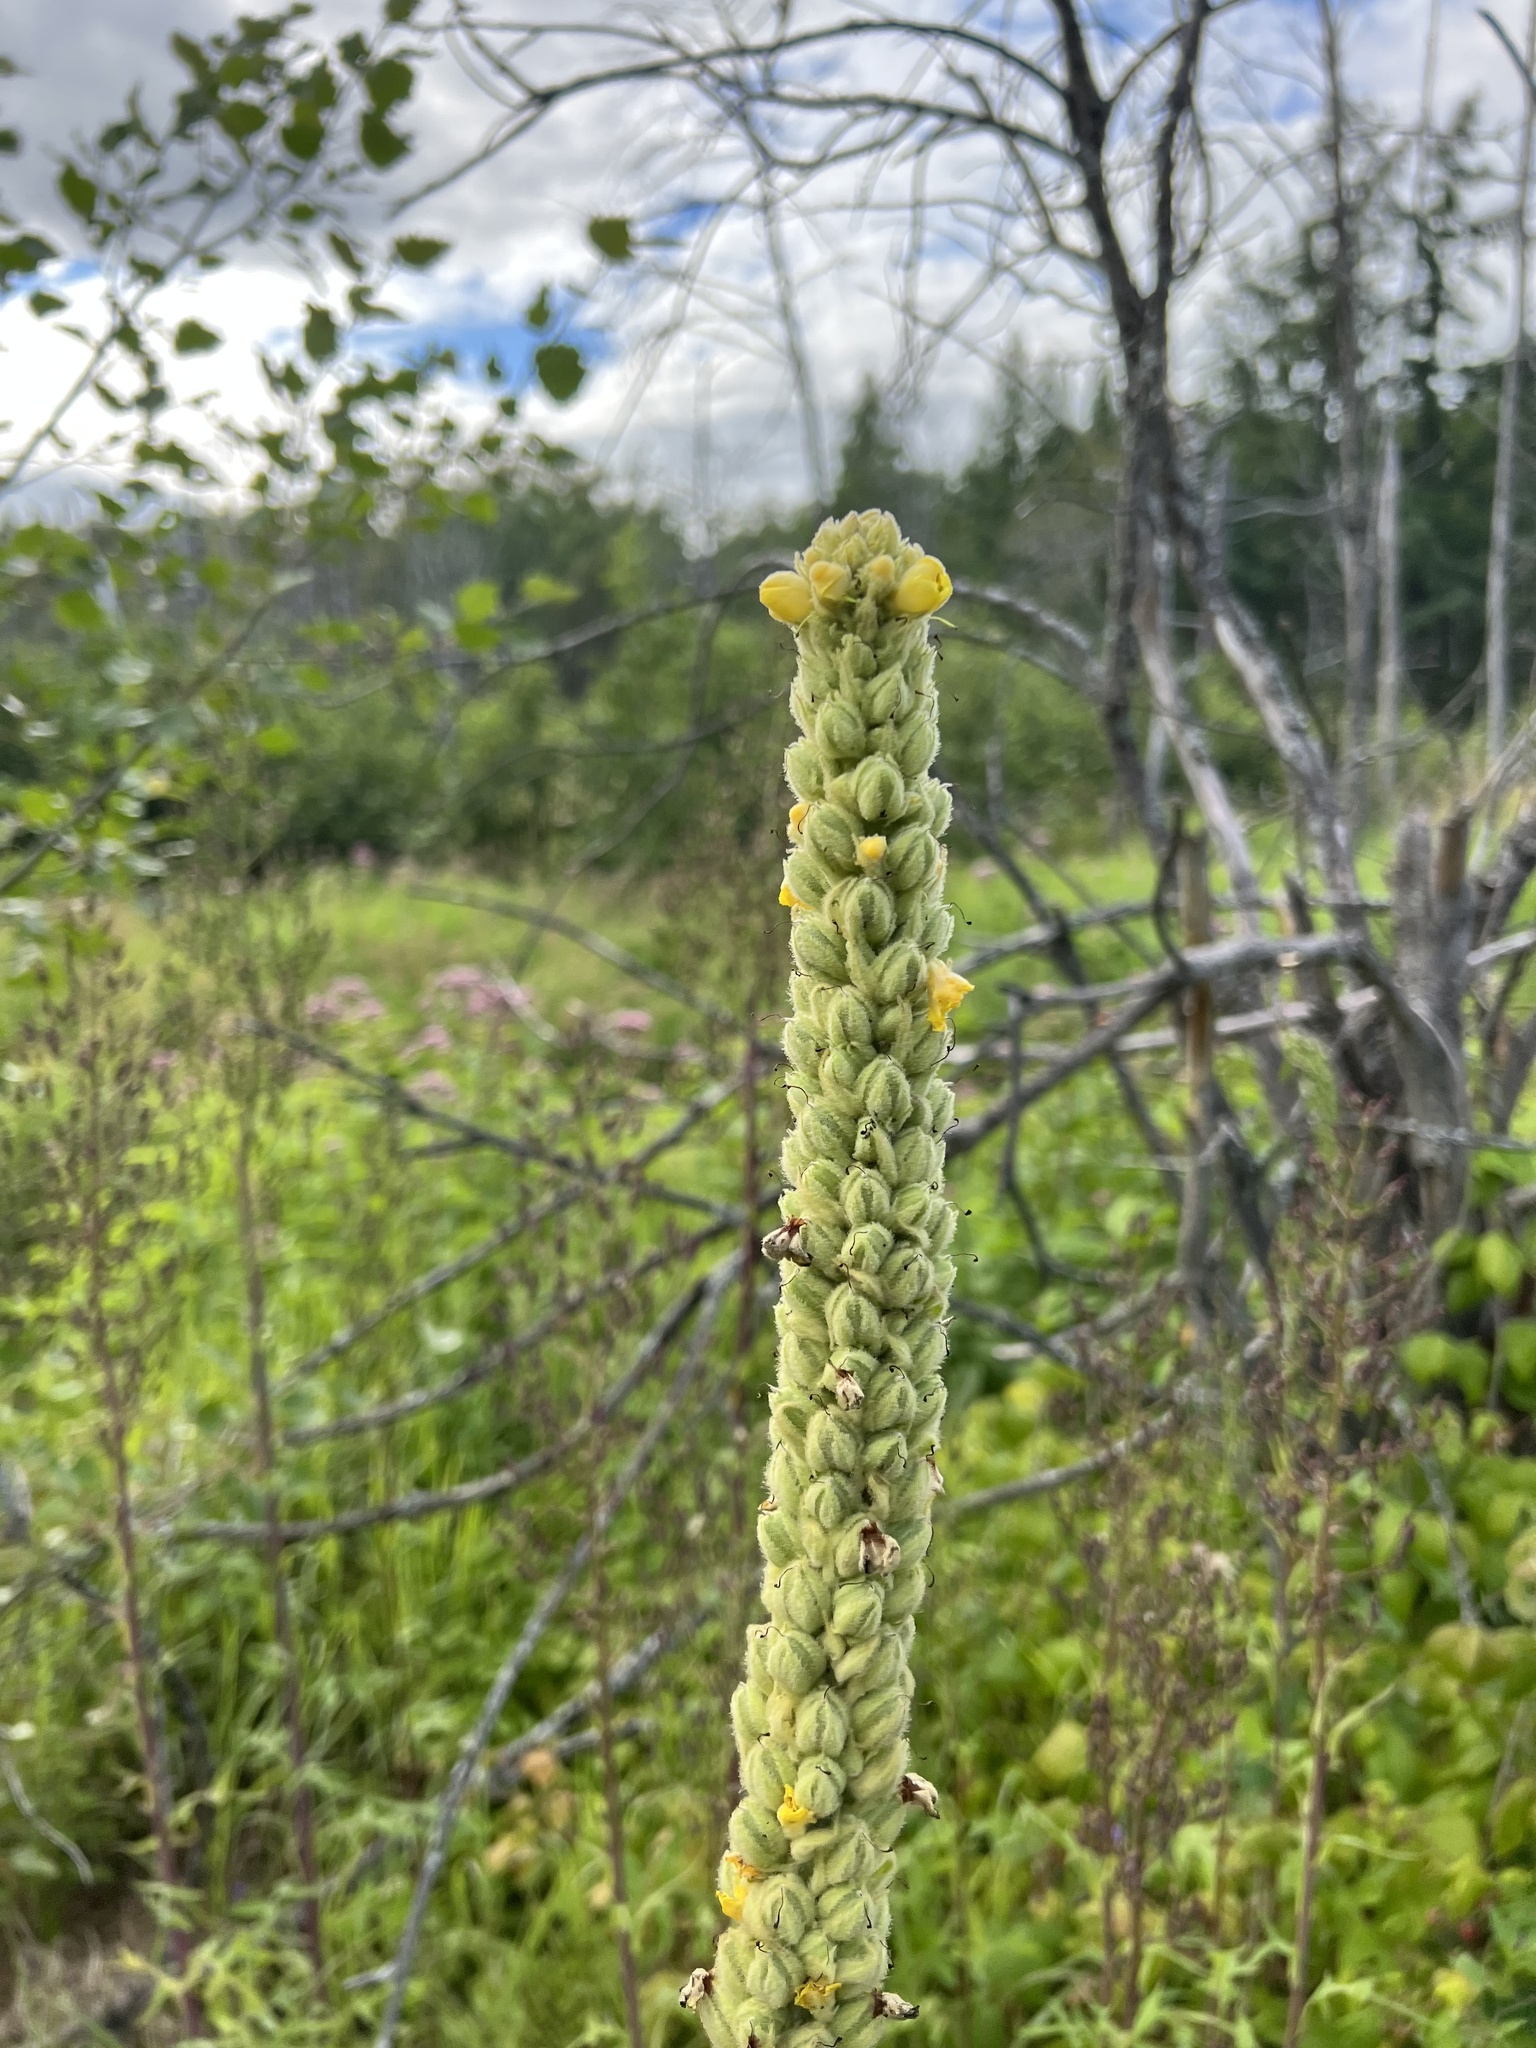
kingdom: Plantae
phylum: Tracheophyta
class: Magnoliopsida
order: Lamiales
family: Scrophulariaceae
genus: Verbascum
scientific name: Verbascum thapsus
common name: Common mullein
